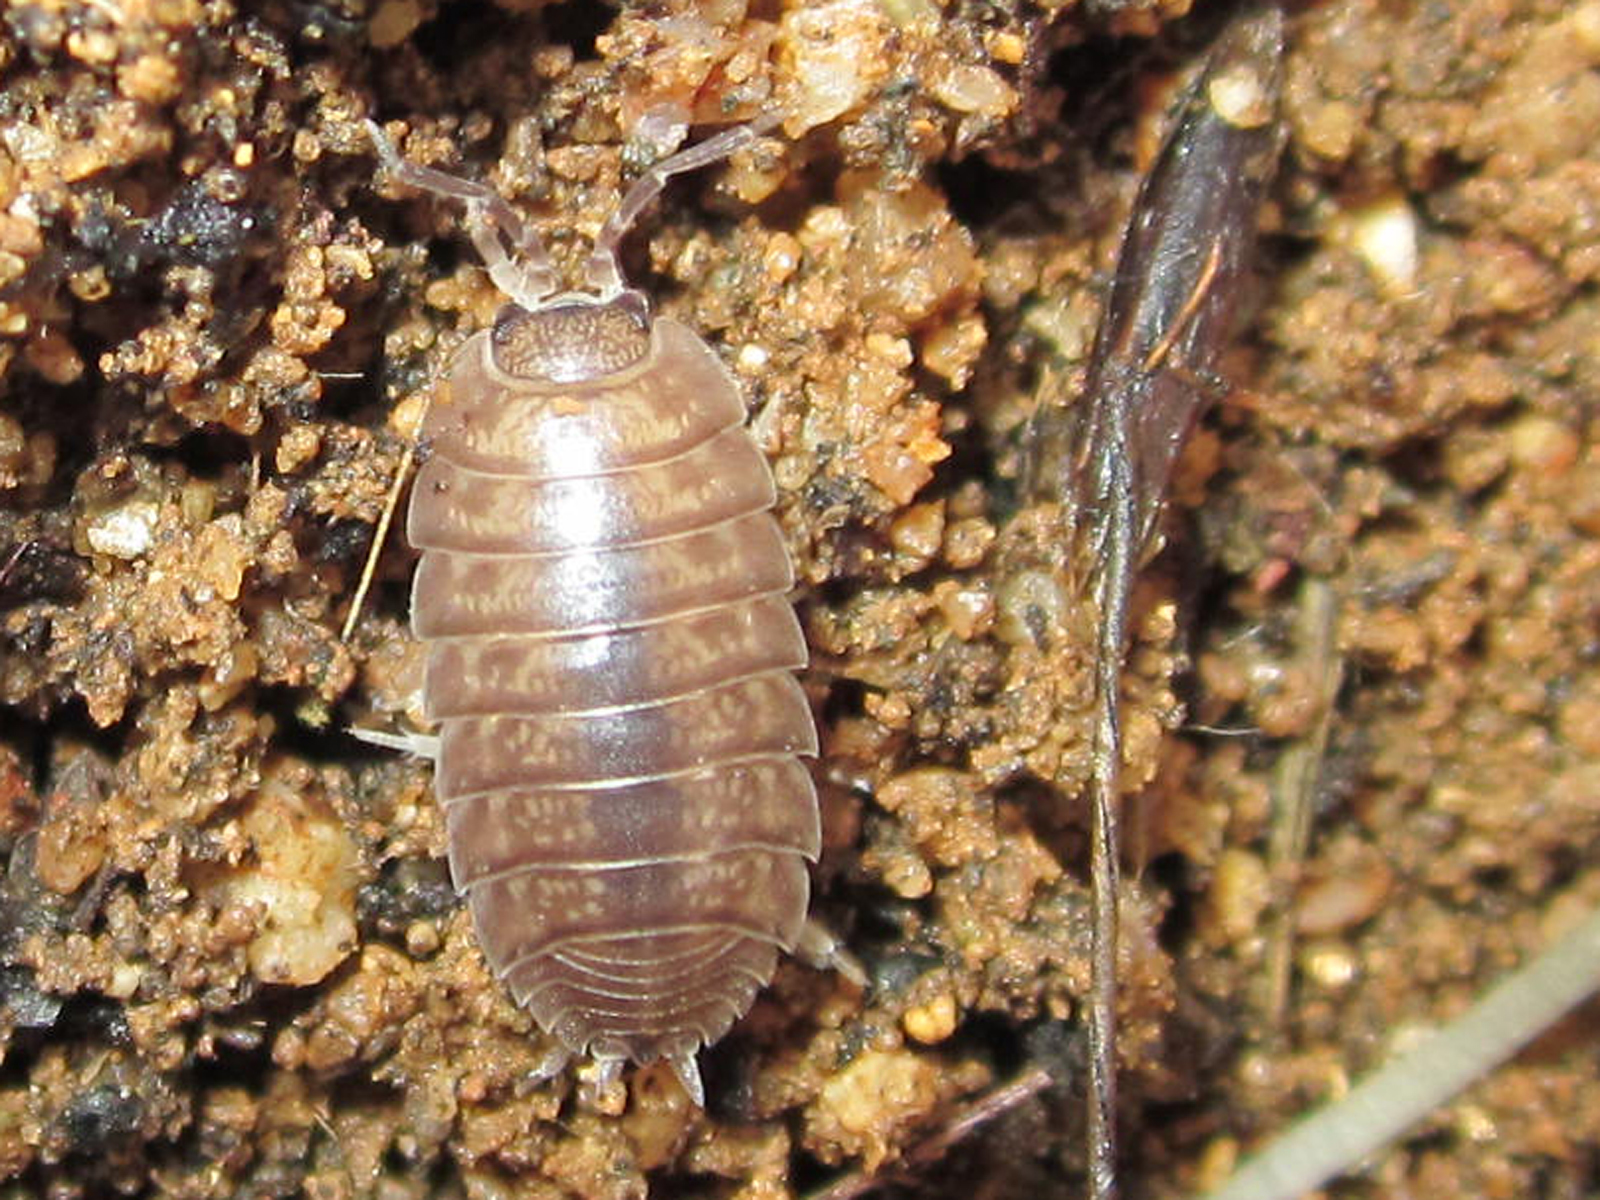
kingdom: Animalia
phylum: Arthropoda
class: Malacostraca
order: Isopoda
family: Porcellionidae
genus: Porcellio
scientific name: Porcellio laevis
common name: Swift woodlouse
